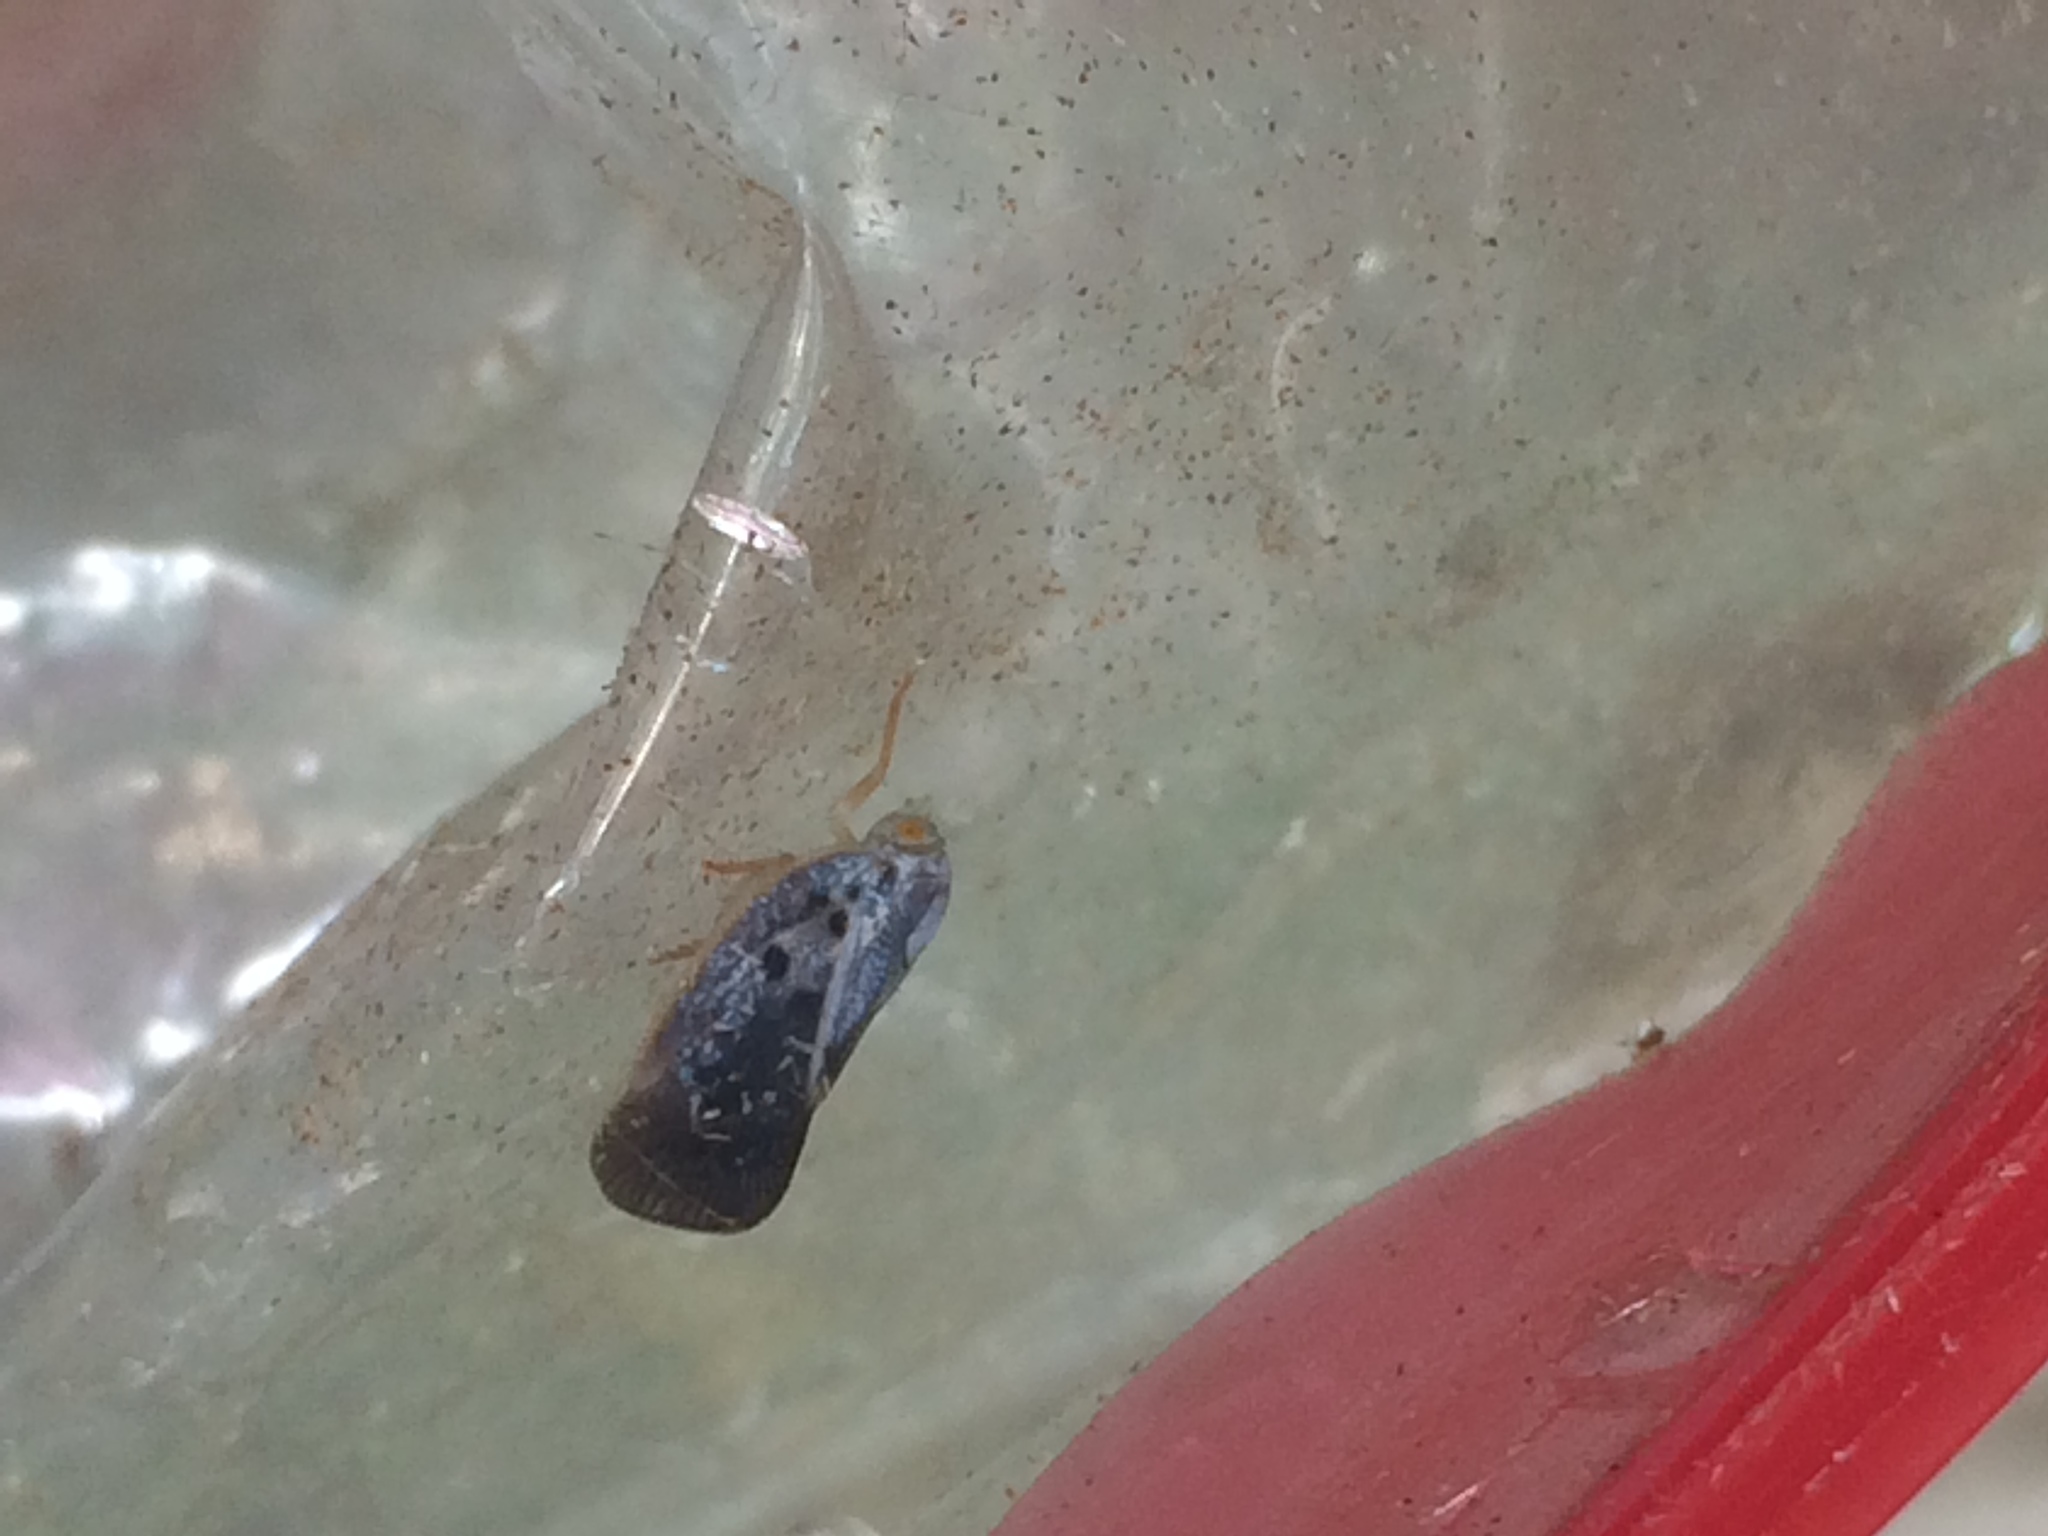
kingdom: Animalia
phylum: Arthropoda
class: Insecta
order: Hemiptera
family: Flatidae
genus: Metcalfa
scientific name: Metcalfa pruinosa
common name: Citrus flatid planthopper
